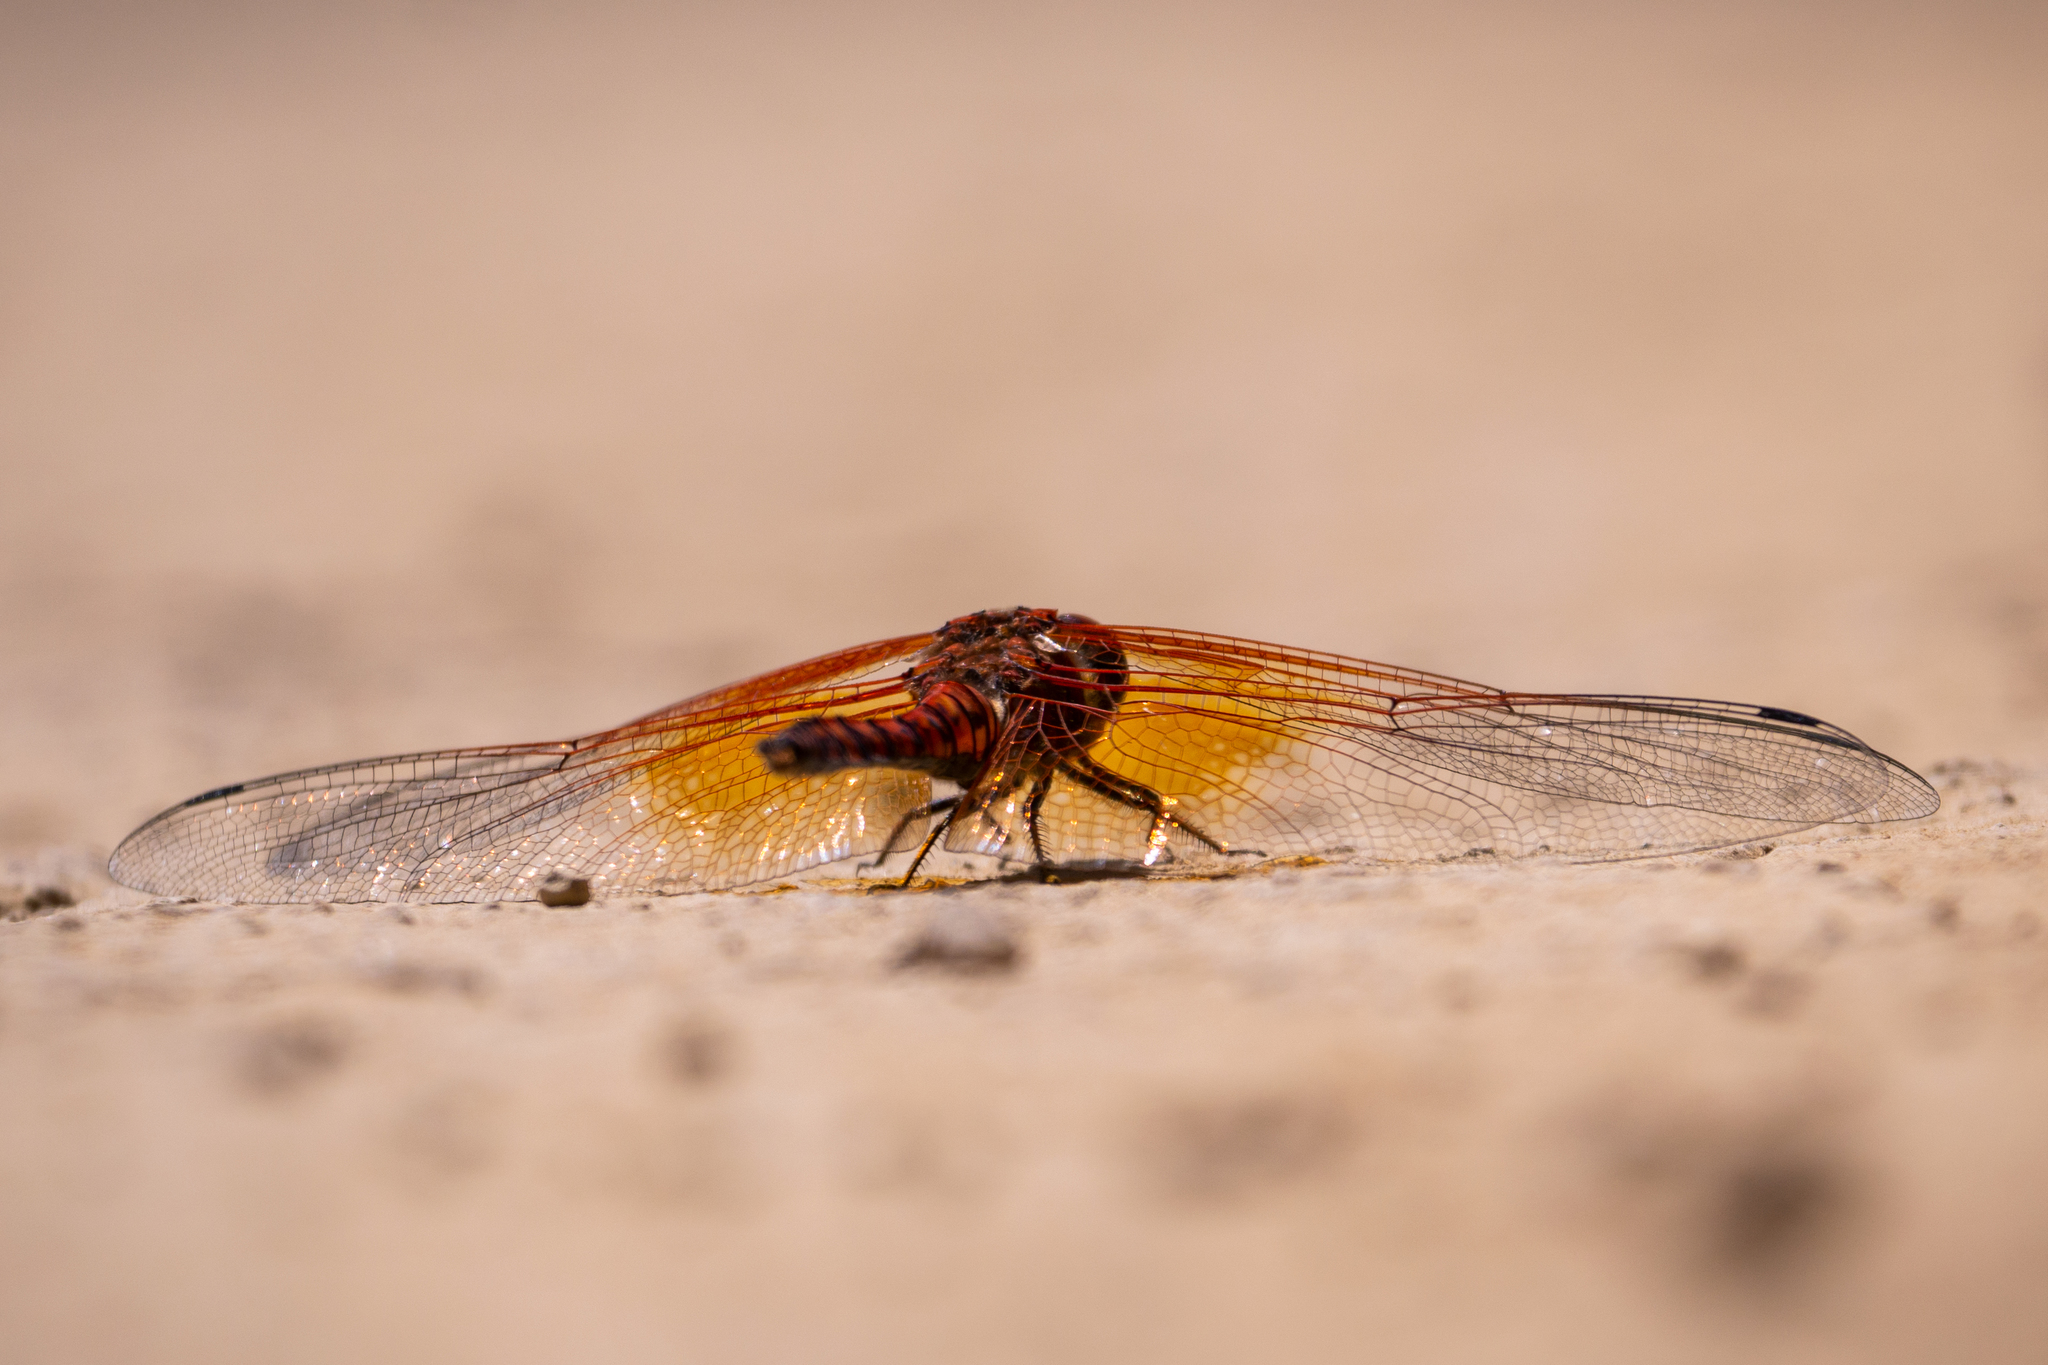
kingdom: Animalia
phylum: Arthropoda
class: Insecta
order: Odonata
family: Libellulidae
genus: Paltothemis
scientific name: Paltothemis lineatipes
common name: Red rock skimmer
